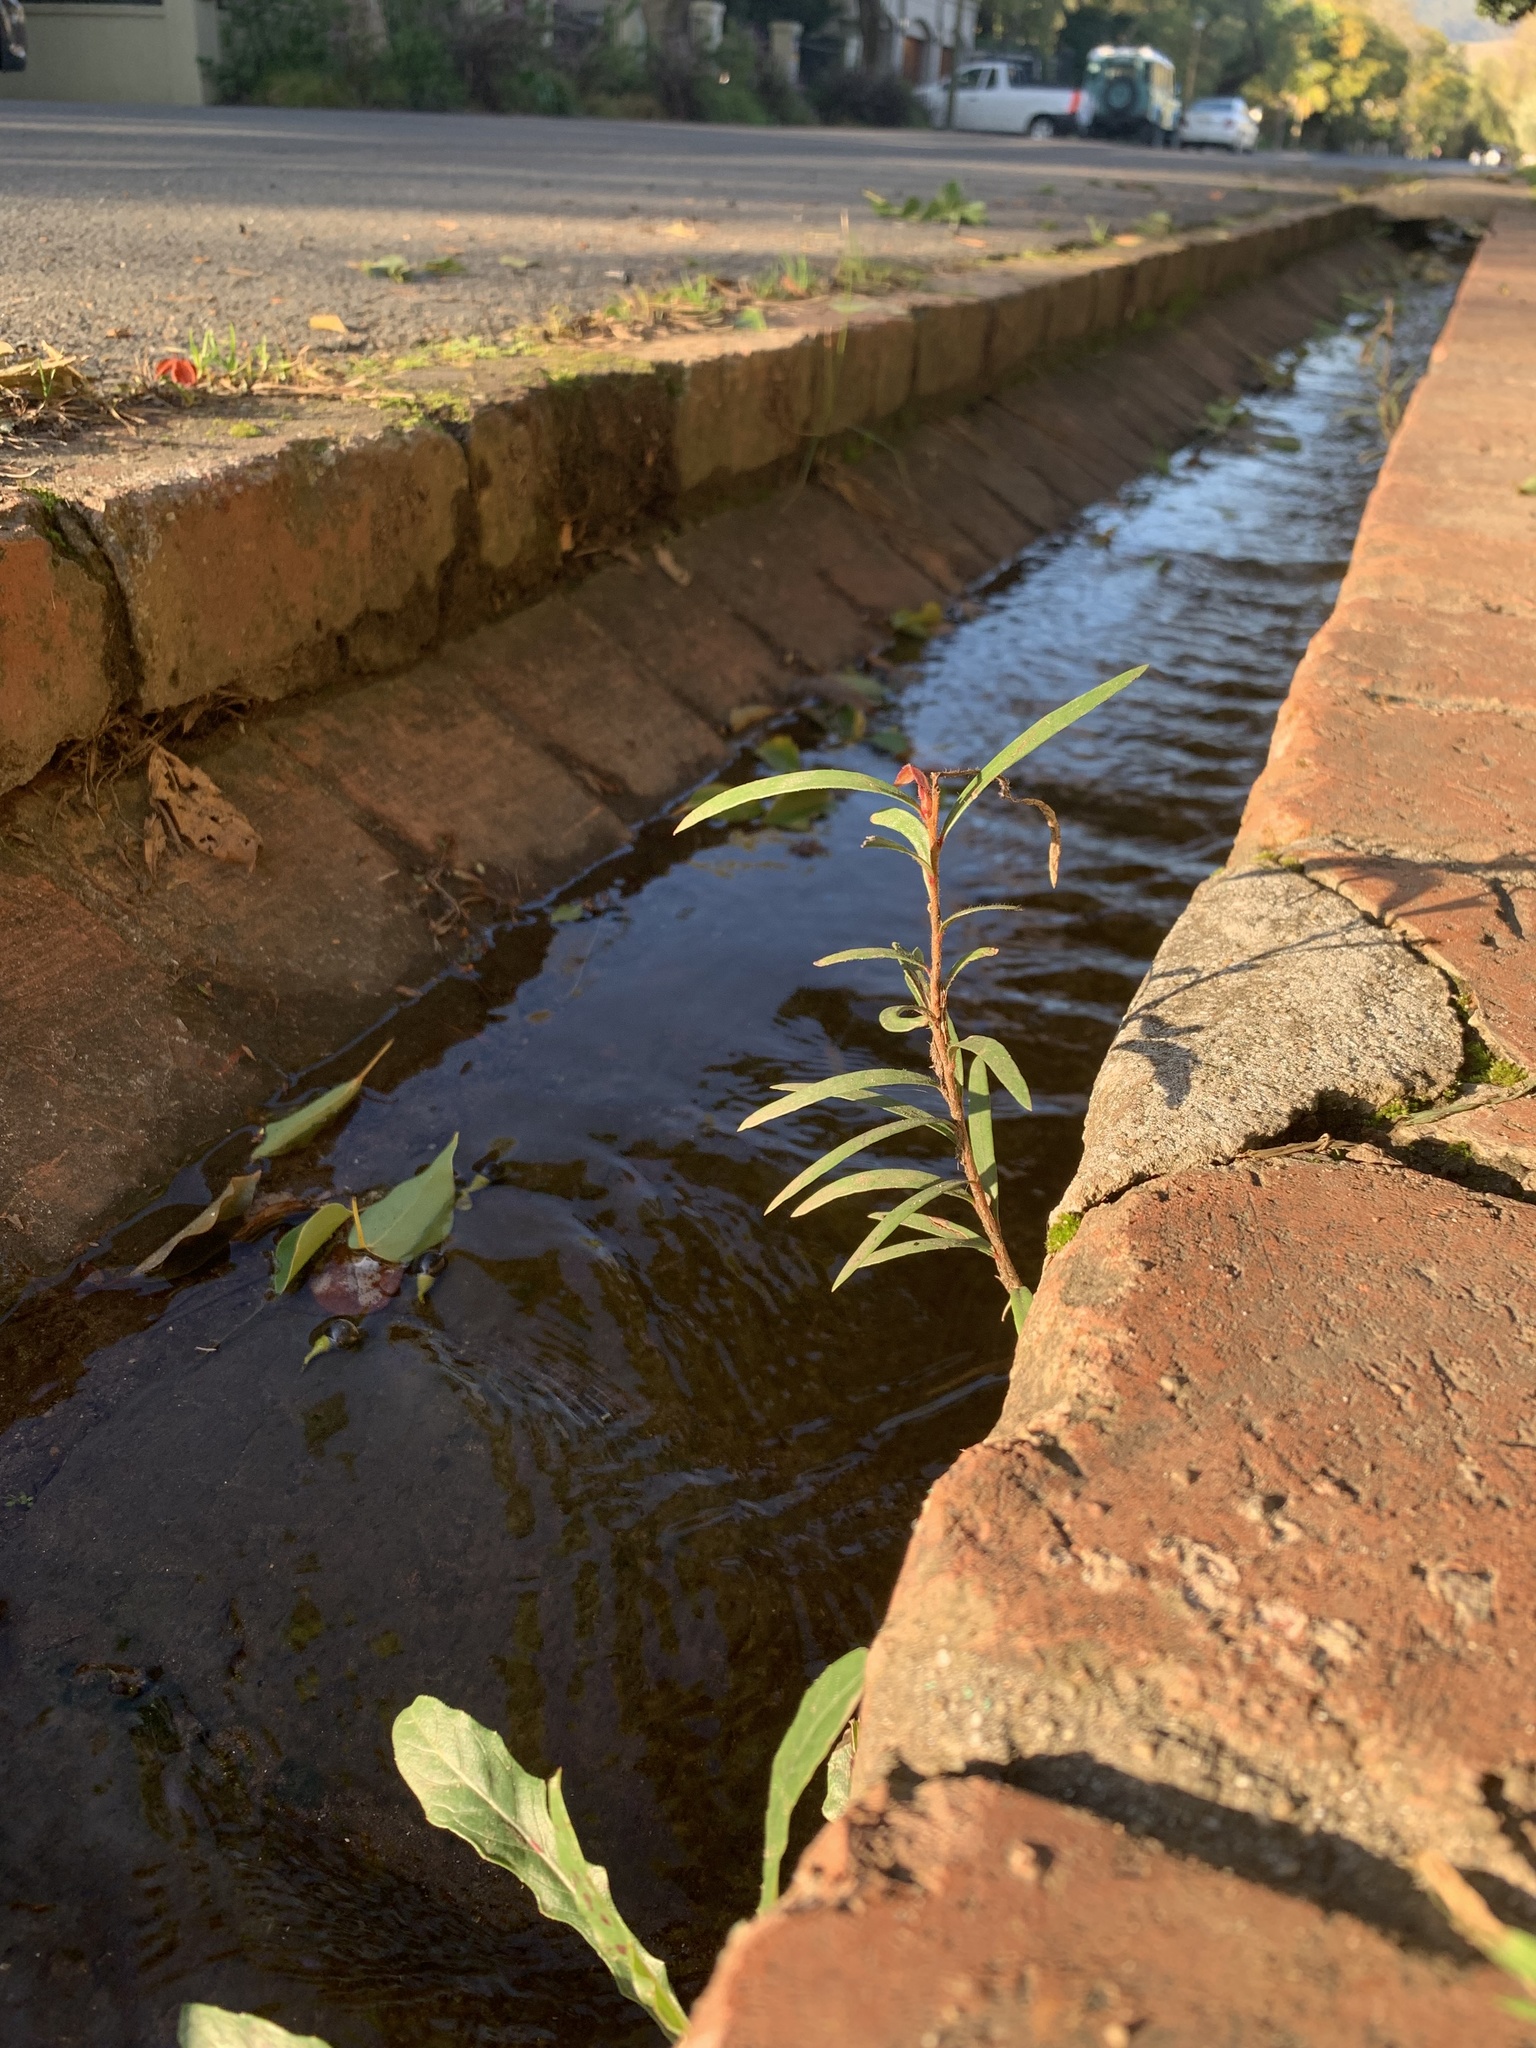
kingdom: Plantae
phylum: Tracheophyta
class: Magnoliopsida
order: Myrtales
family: Myrtaceae
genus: Callistemon
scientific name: Callistemon viminalis
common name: Drooping bottlebrush
